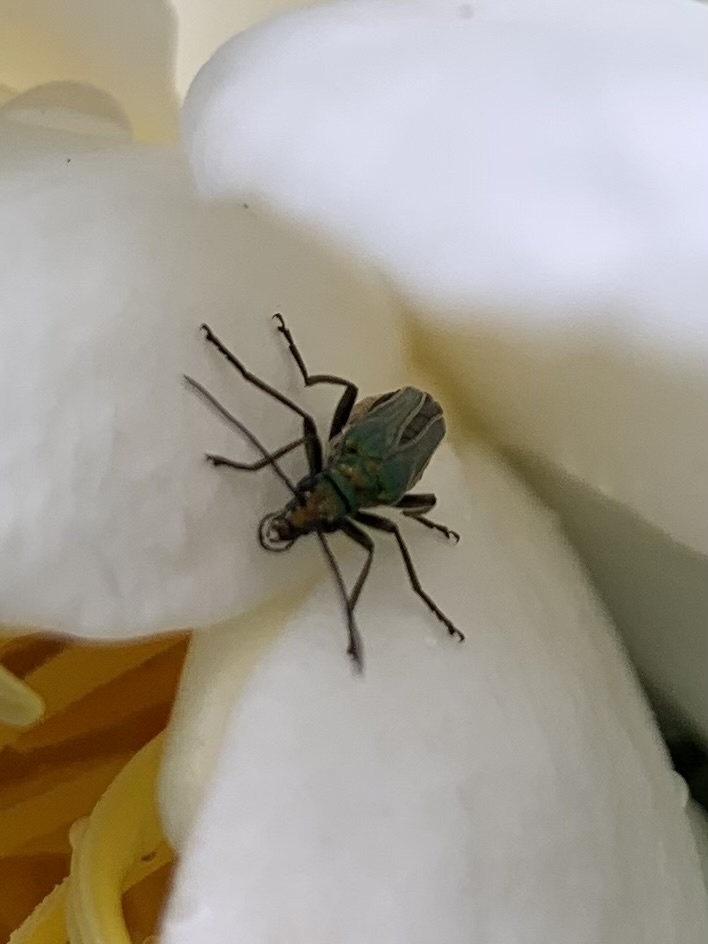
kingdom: Animalia
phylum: Arthropoda
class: Insecta
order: Coleoptera
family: Oedemeridae
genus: Oedemera
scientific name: Oedemera nobilis
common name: Swollen-thighed beetle
